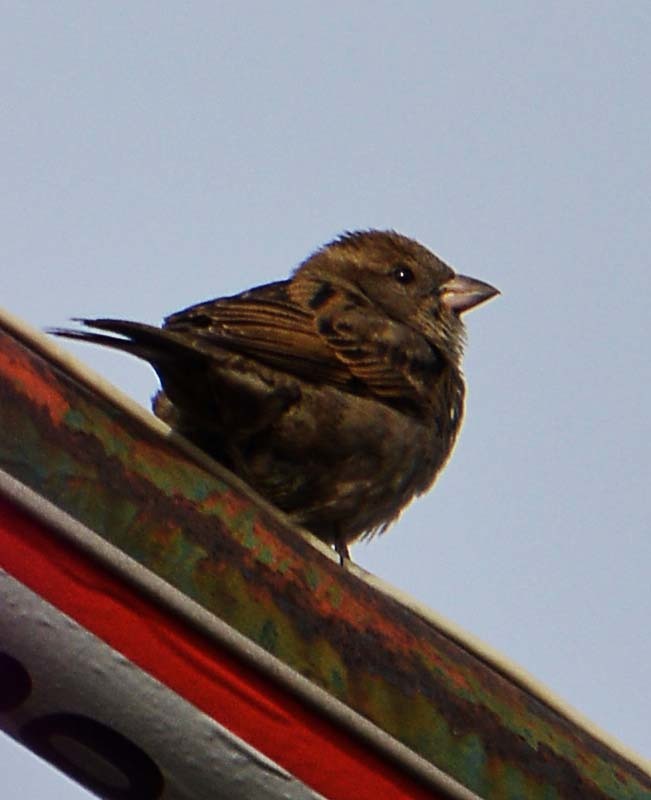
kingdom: Animalia
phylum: Chordata
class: Aves
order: Passeriformes
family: Passeridae
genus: Passer
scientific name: Passer domesticus
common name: House sparrow
